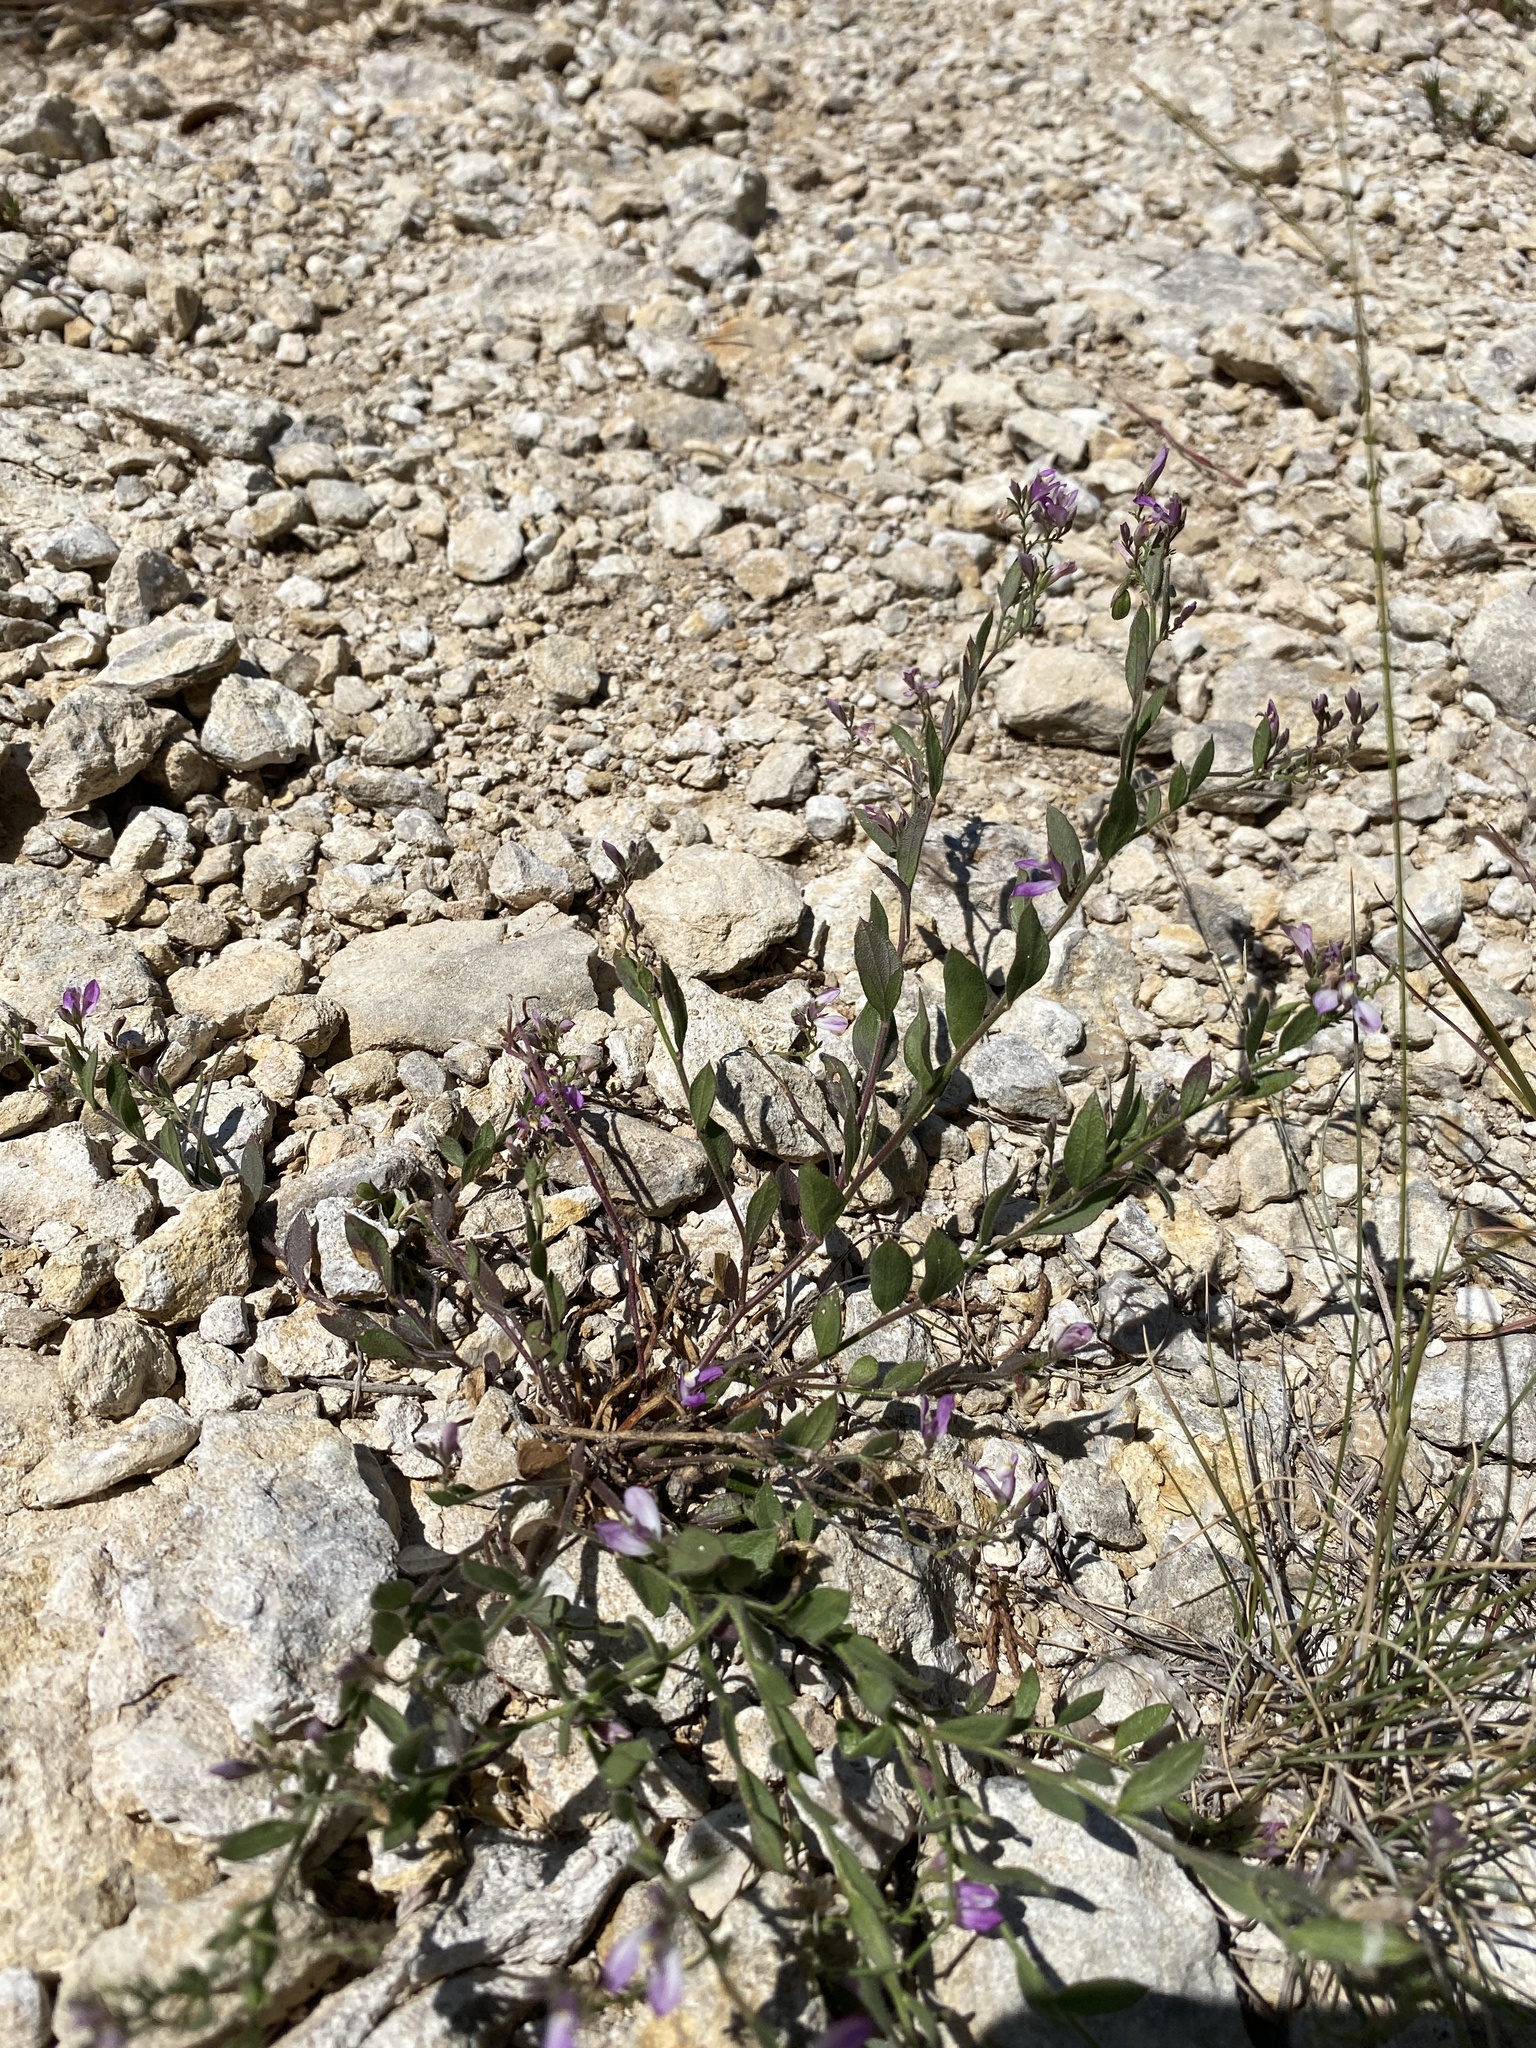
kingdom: Plantae
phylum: Tracheophyta
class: Magnoliopsida
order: Fabales
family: Polygalaceae
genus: Rhinotropis
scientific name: Rhinotropis lindheimeri
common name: Shrubby milkwort
